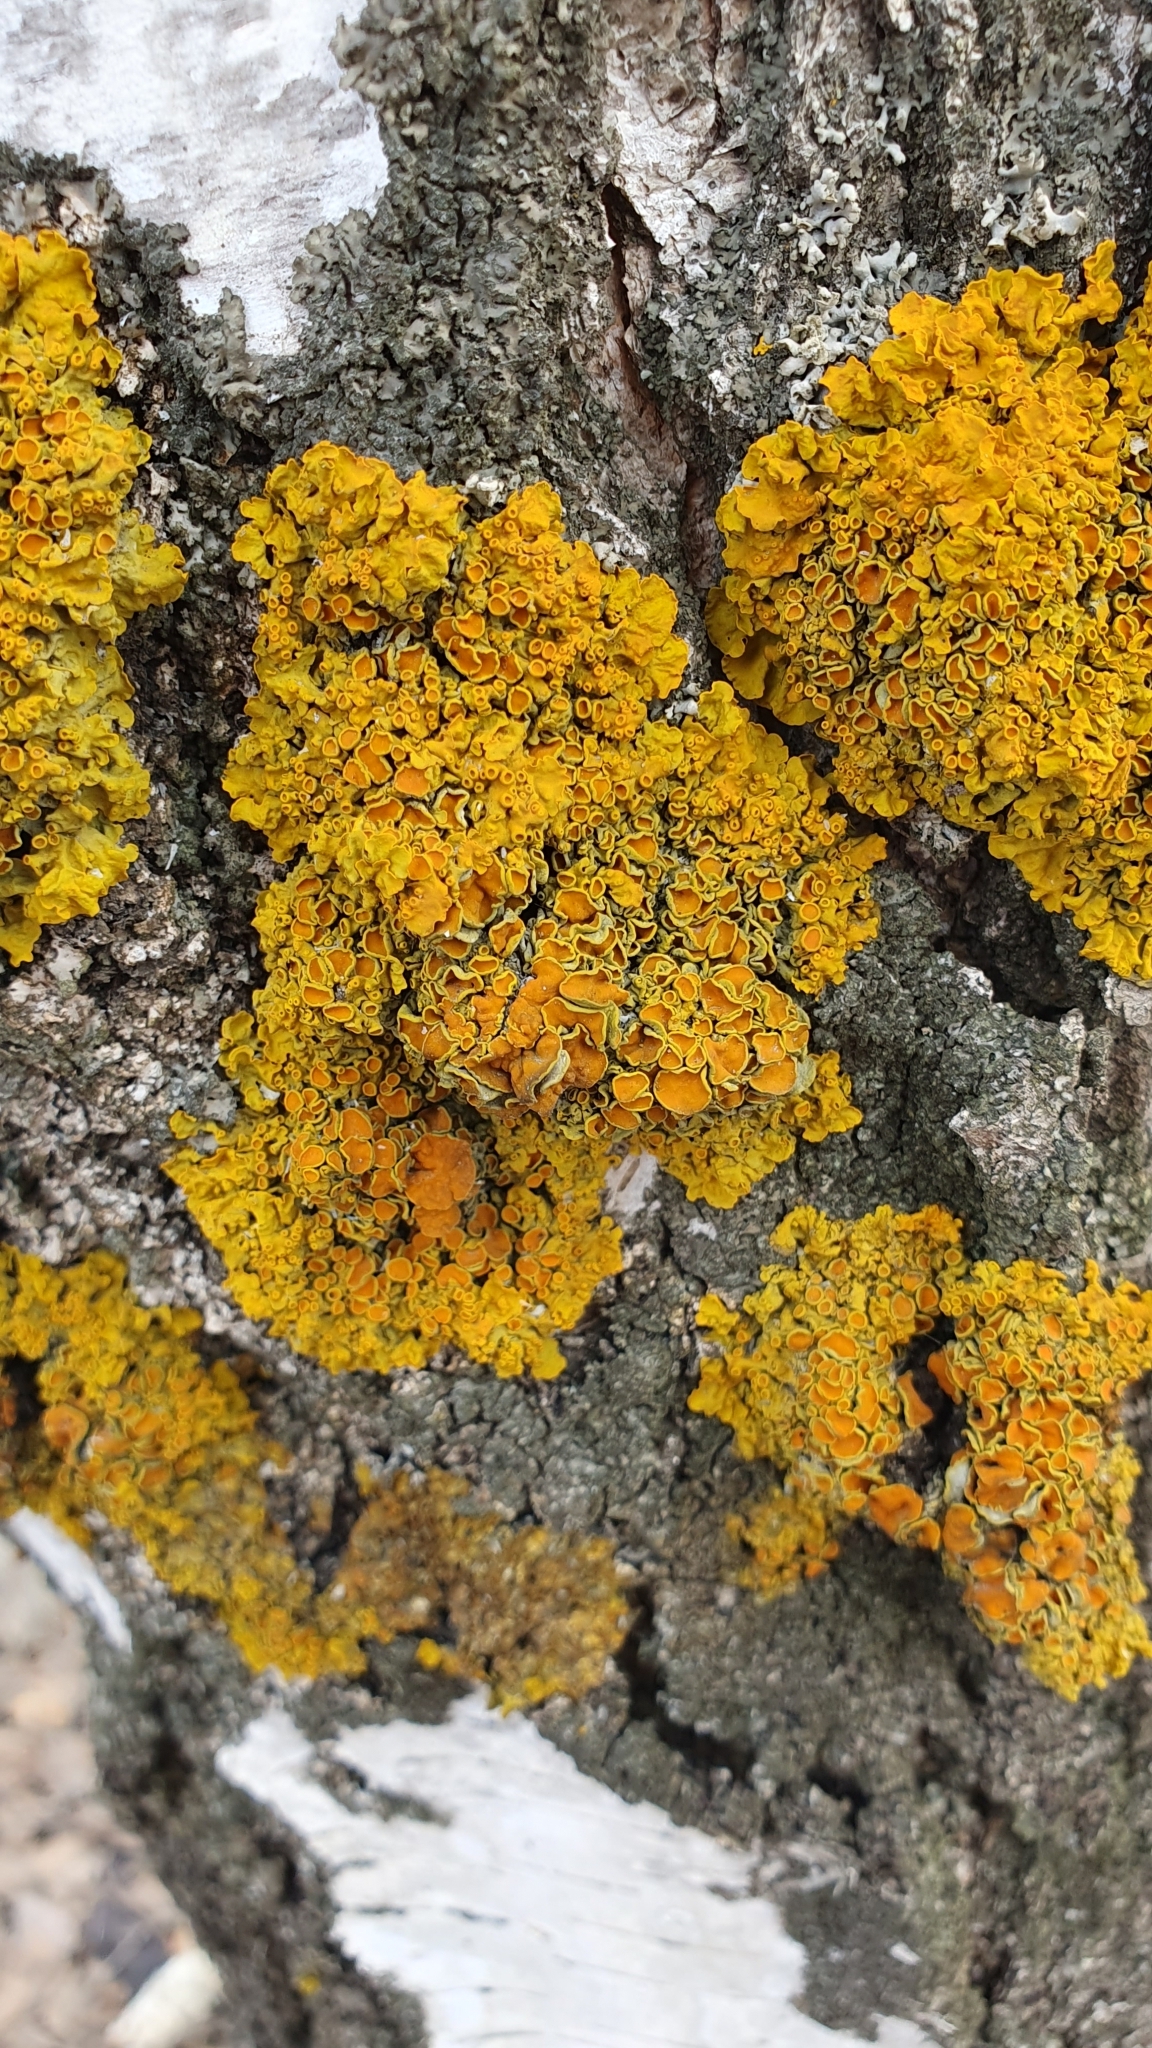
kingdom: Fungi
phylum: Ascomycota
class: Lecanoromycetes
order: Teloschistales
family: Teloschistaceae
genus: Xanthoria
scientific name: Xanthoria parietina
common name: Common orange lichen
